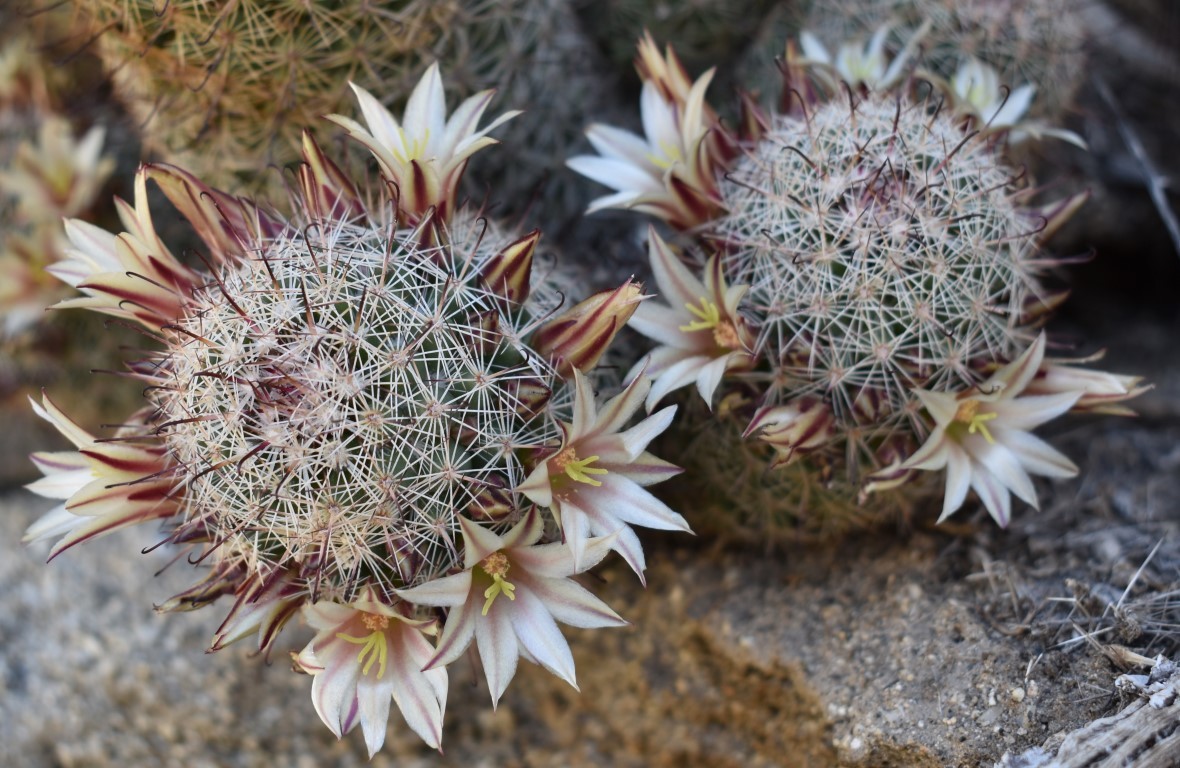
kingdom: Plantae
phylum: Tracheophyta
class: Magnoliopsida
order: Caryophyllales
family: Cactaceae
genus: Cochemiea
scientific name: Cochemiea dioica
